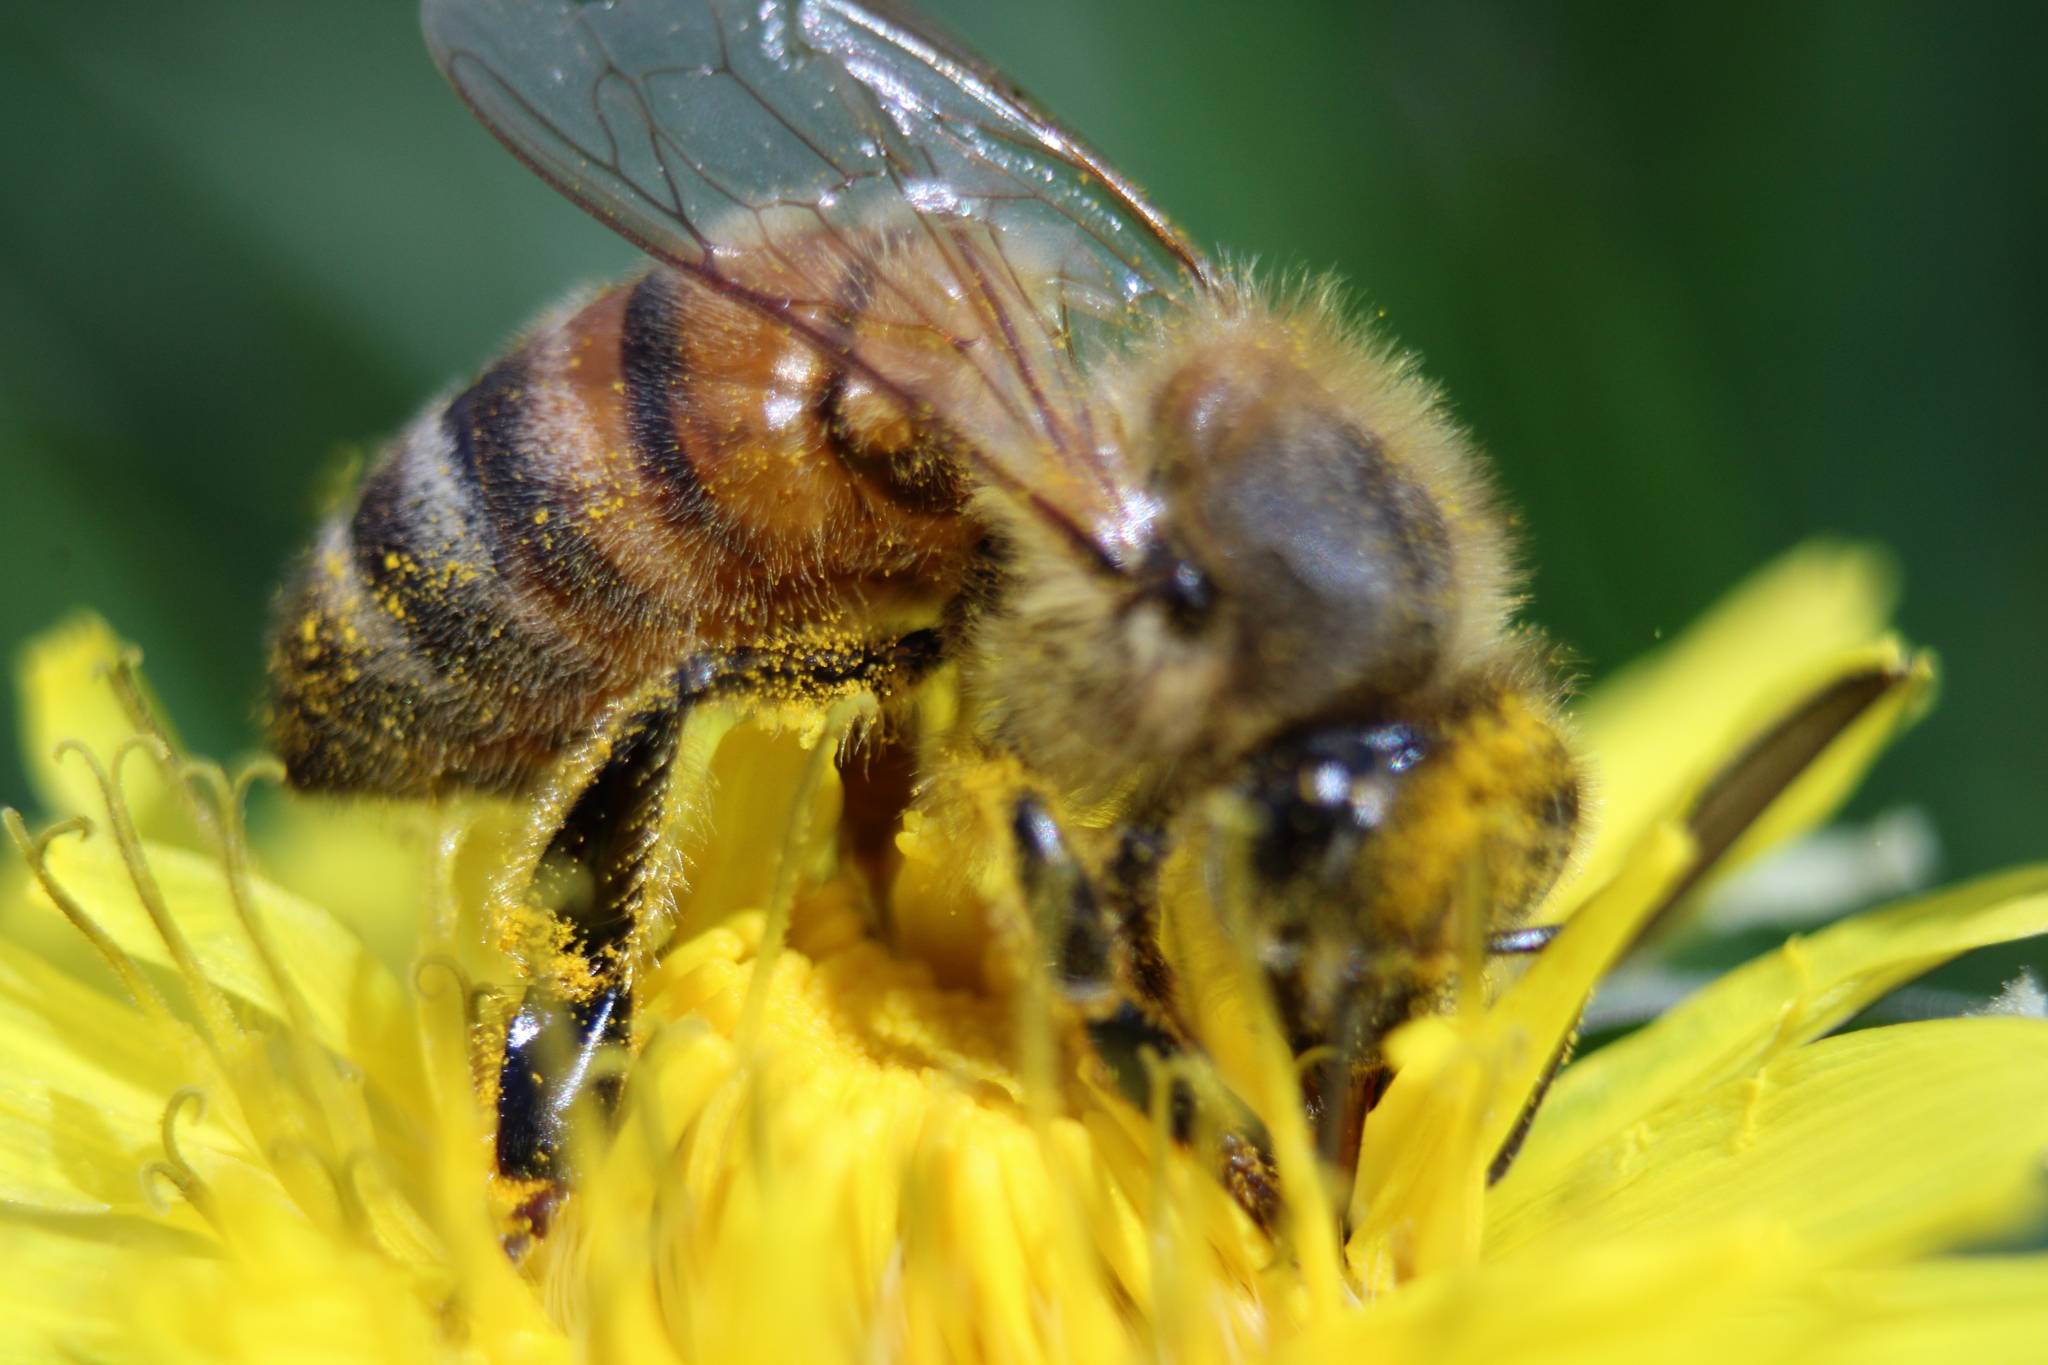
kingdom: Animalia
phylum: Arthropoda
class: Insecta
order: Hymenoptera
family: Apidae
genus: Apis
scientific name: Apis mellifera
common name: Honey bee
